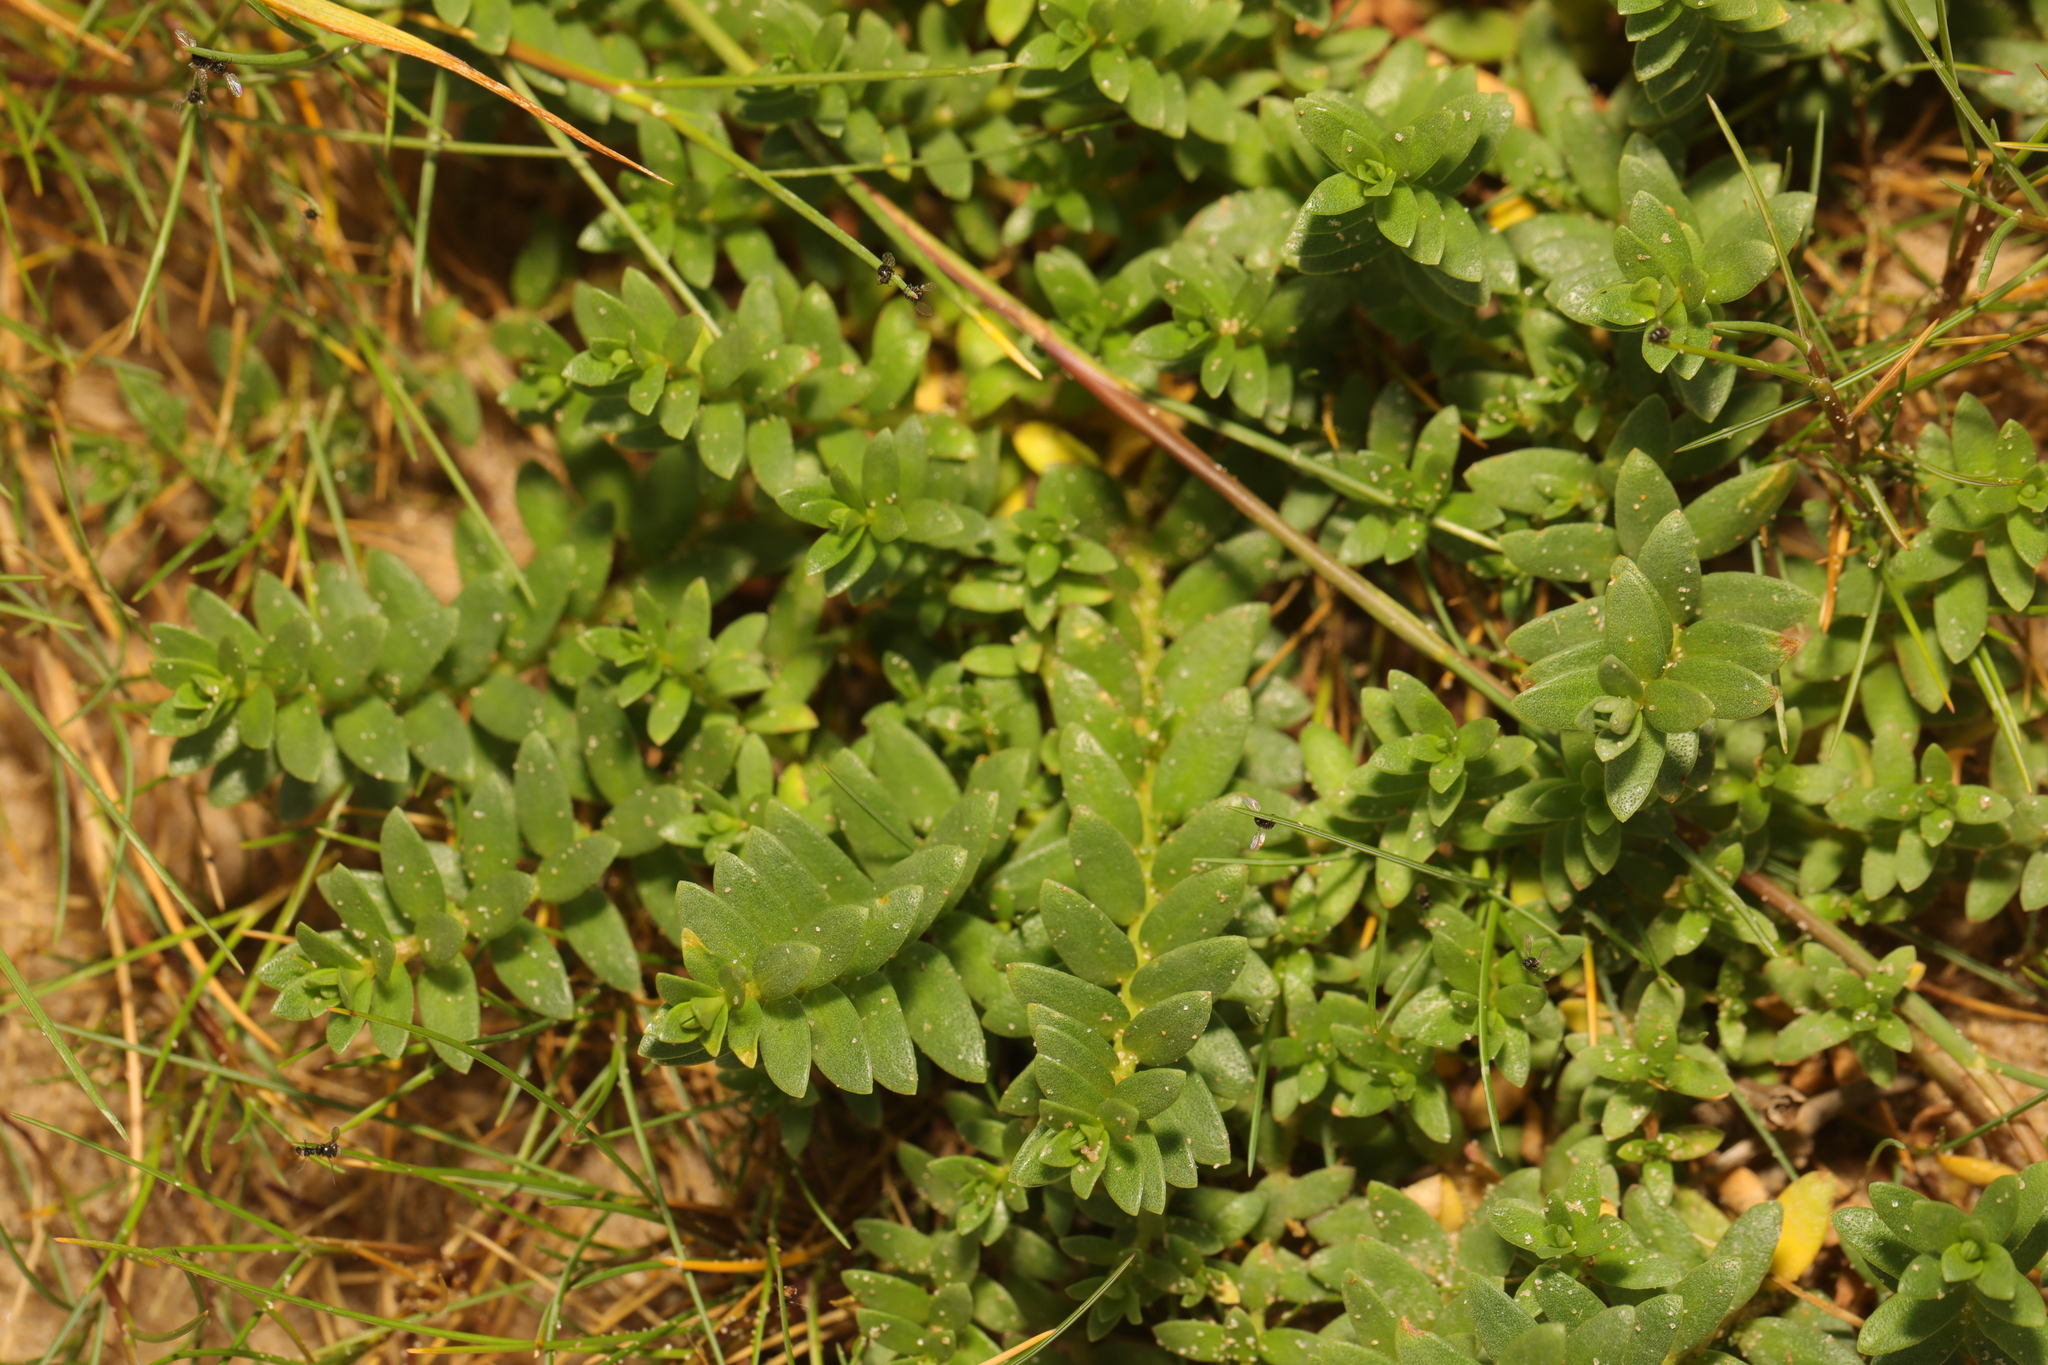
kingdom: Plantae
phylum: Tracheophyta
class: Magnoliopsida
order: Ericales
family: Primulaceae
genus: Lysimachia
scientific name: Lysimachia maritima
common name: Sea milkwort
